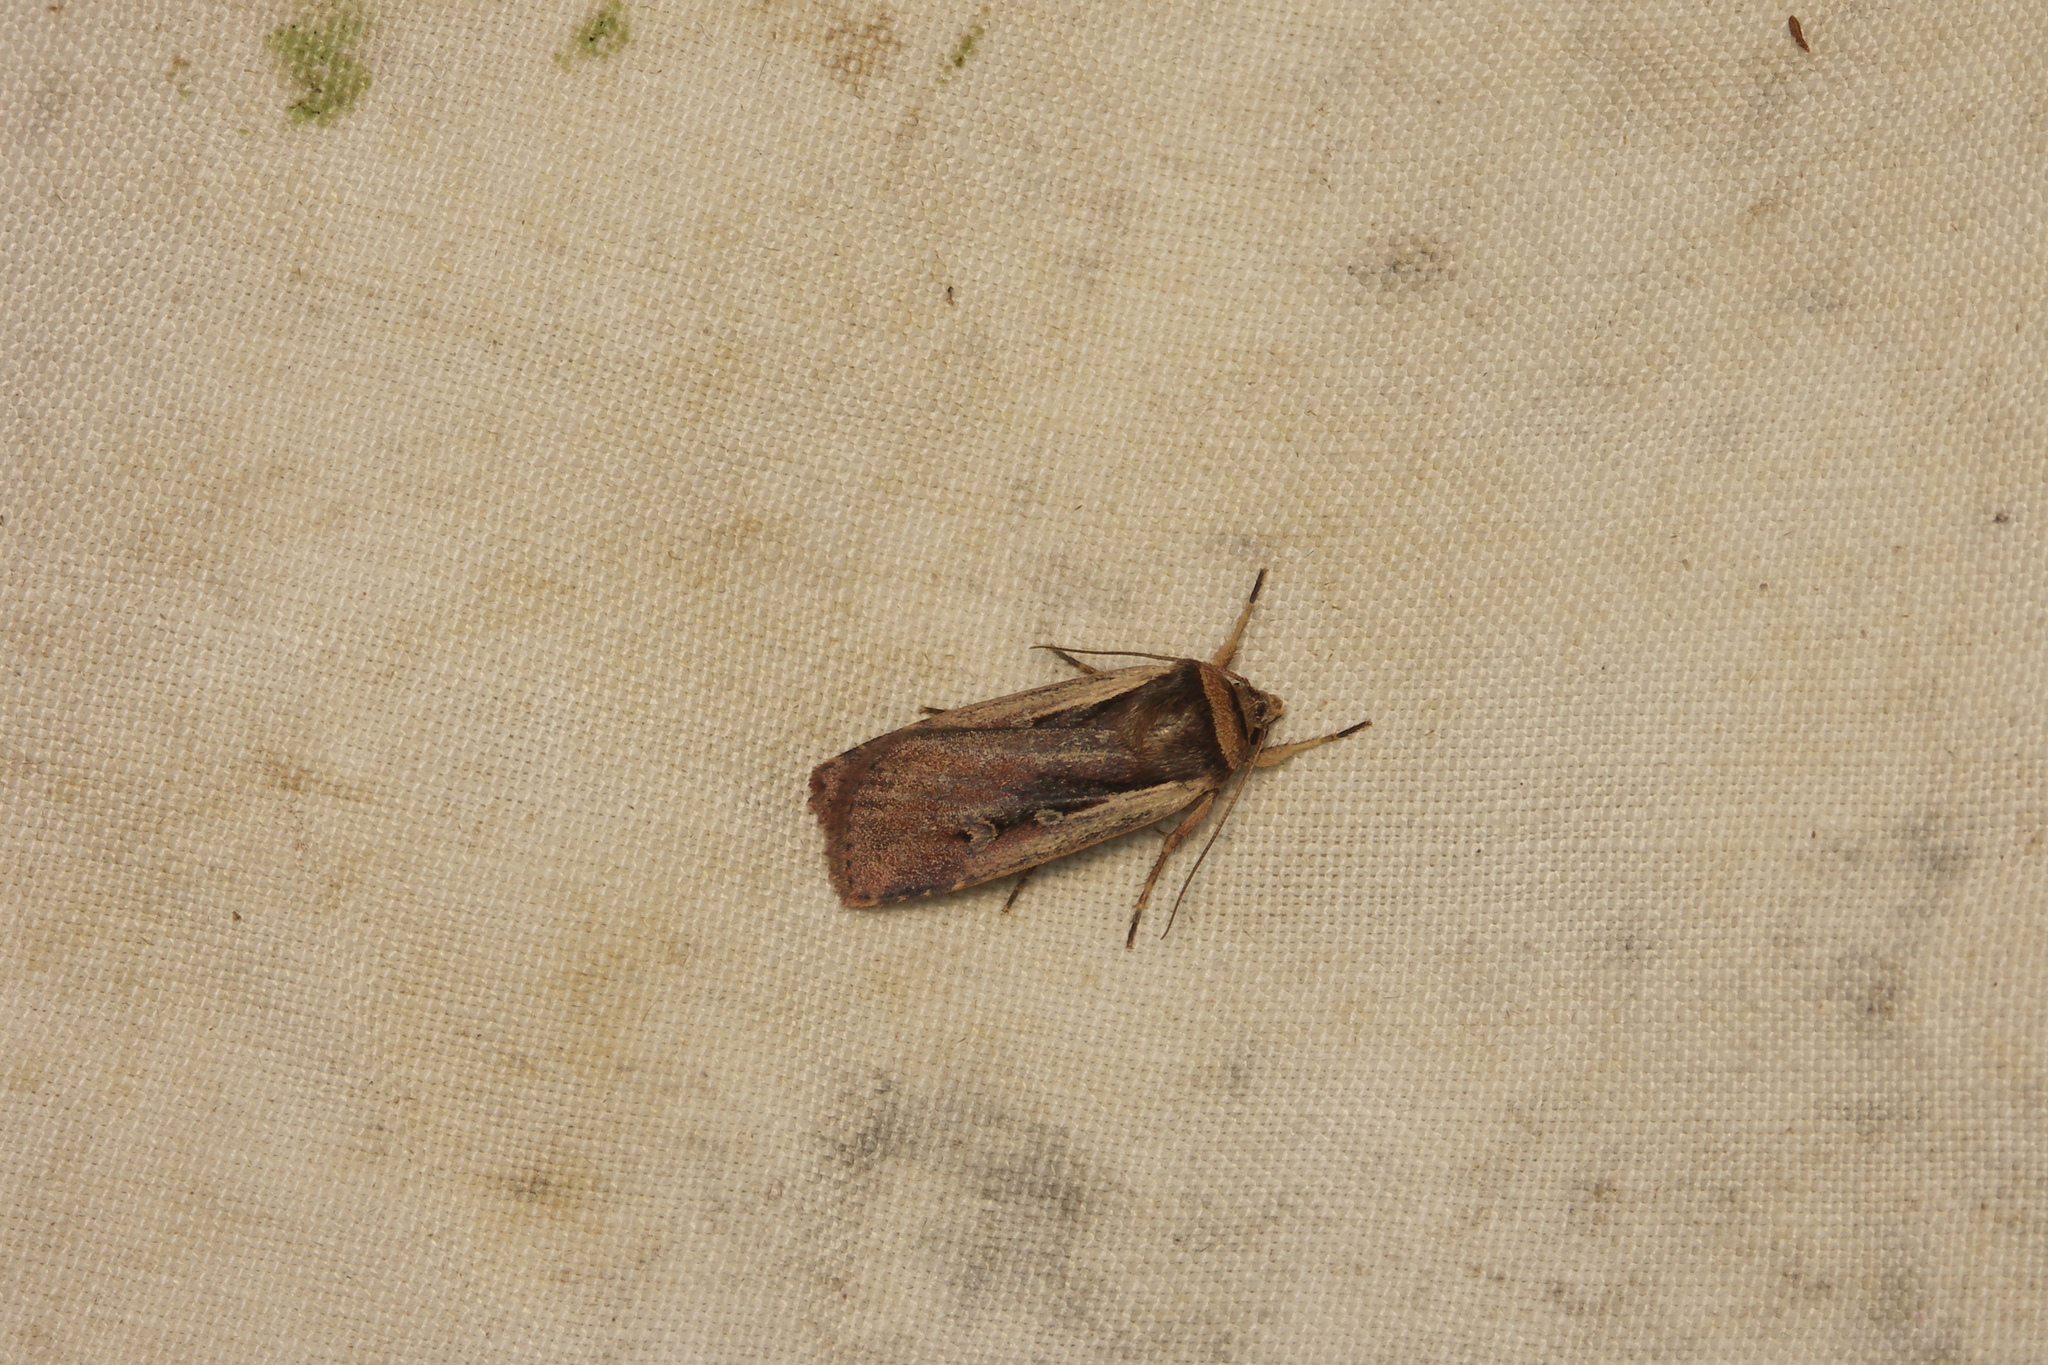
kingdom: Animalia
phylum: Arthropoda
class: Insecta
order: Lepidoptera
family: Noctuidae
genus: Ochropleura
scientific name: Ochropleura plecta
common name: Flame shoulder
